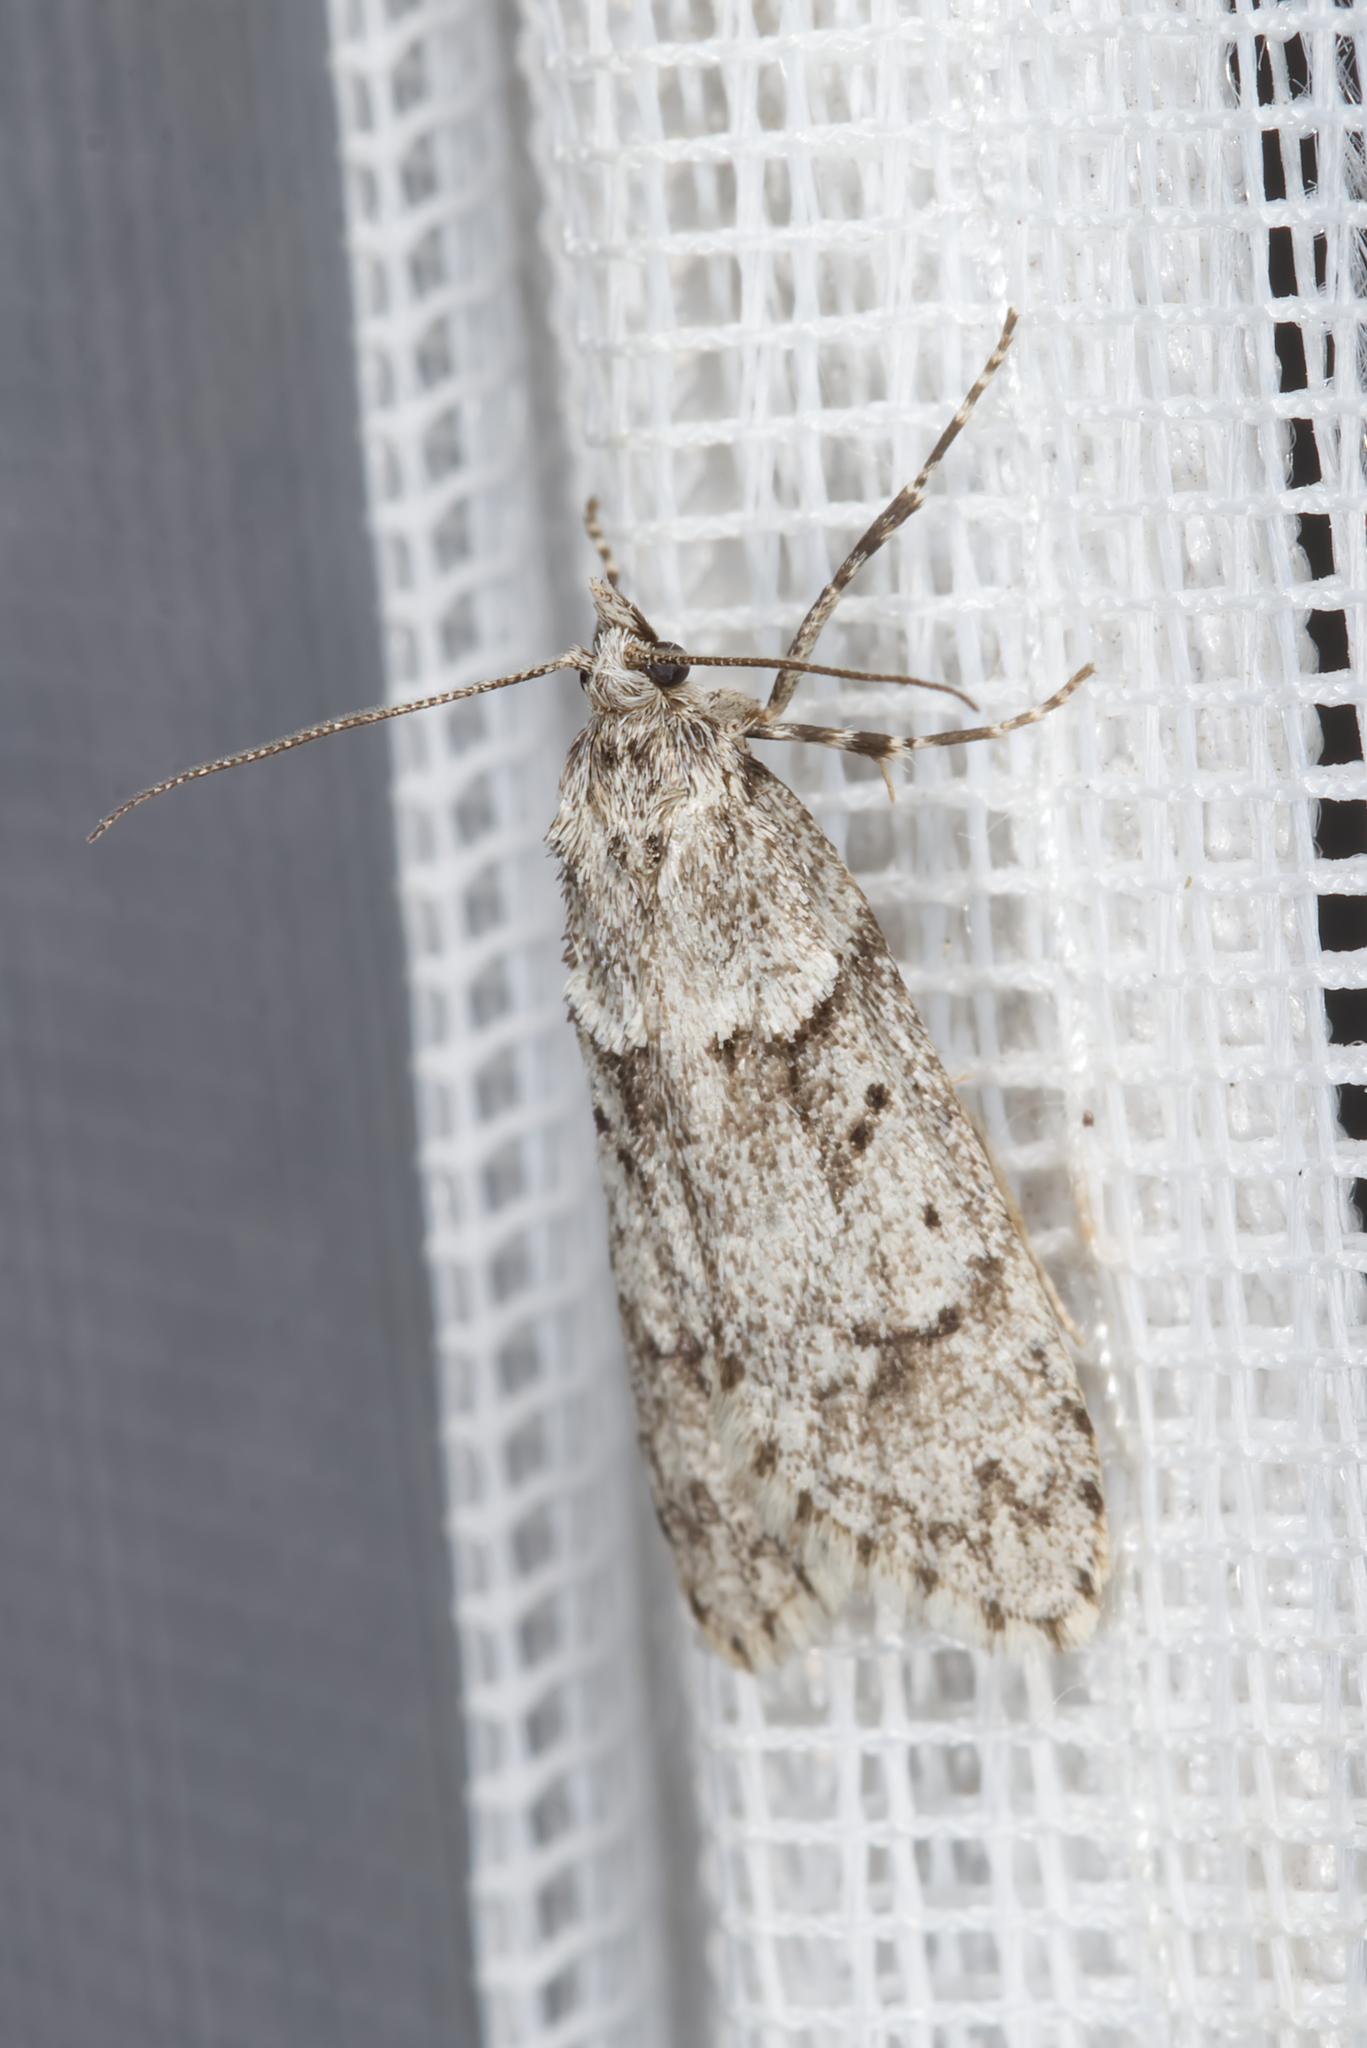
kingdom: Animalia
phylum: Arthropoda
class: Insecta
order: Lepidoptera
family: Lypusidae
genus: Diurnea
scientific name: Diurnea fagella
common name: March tubic
